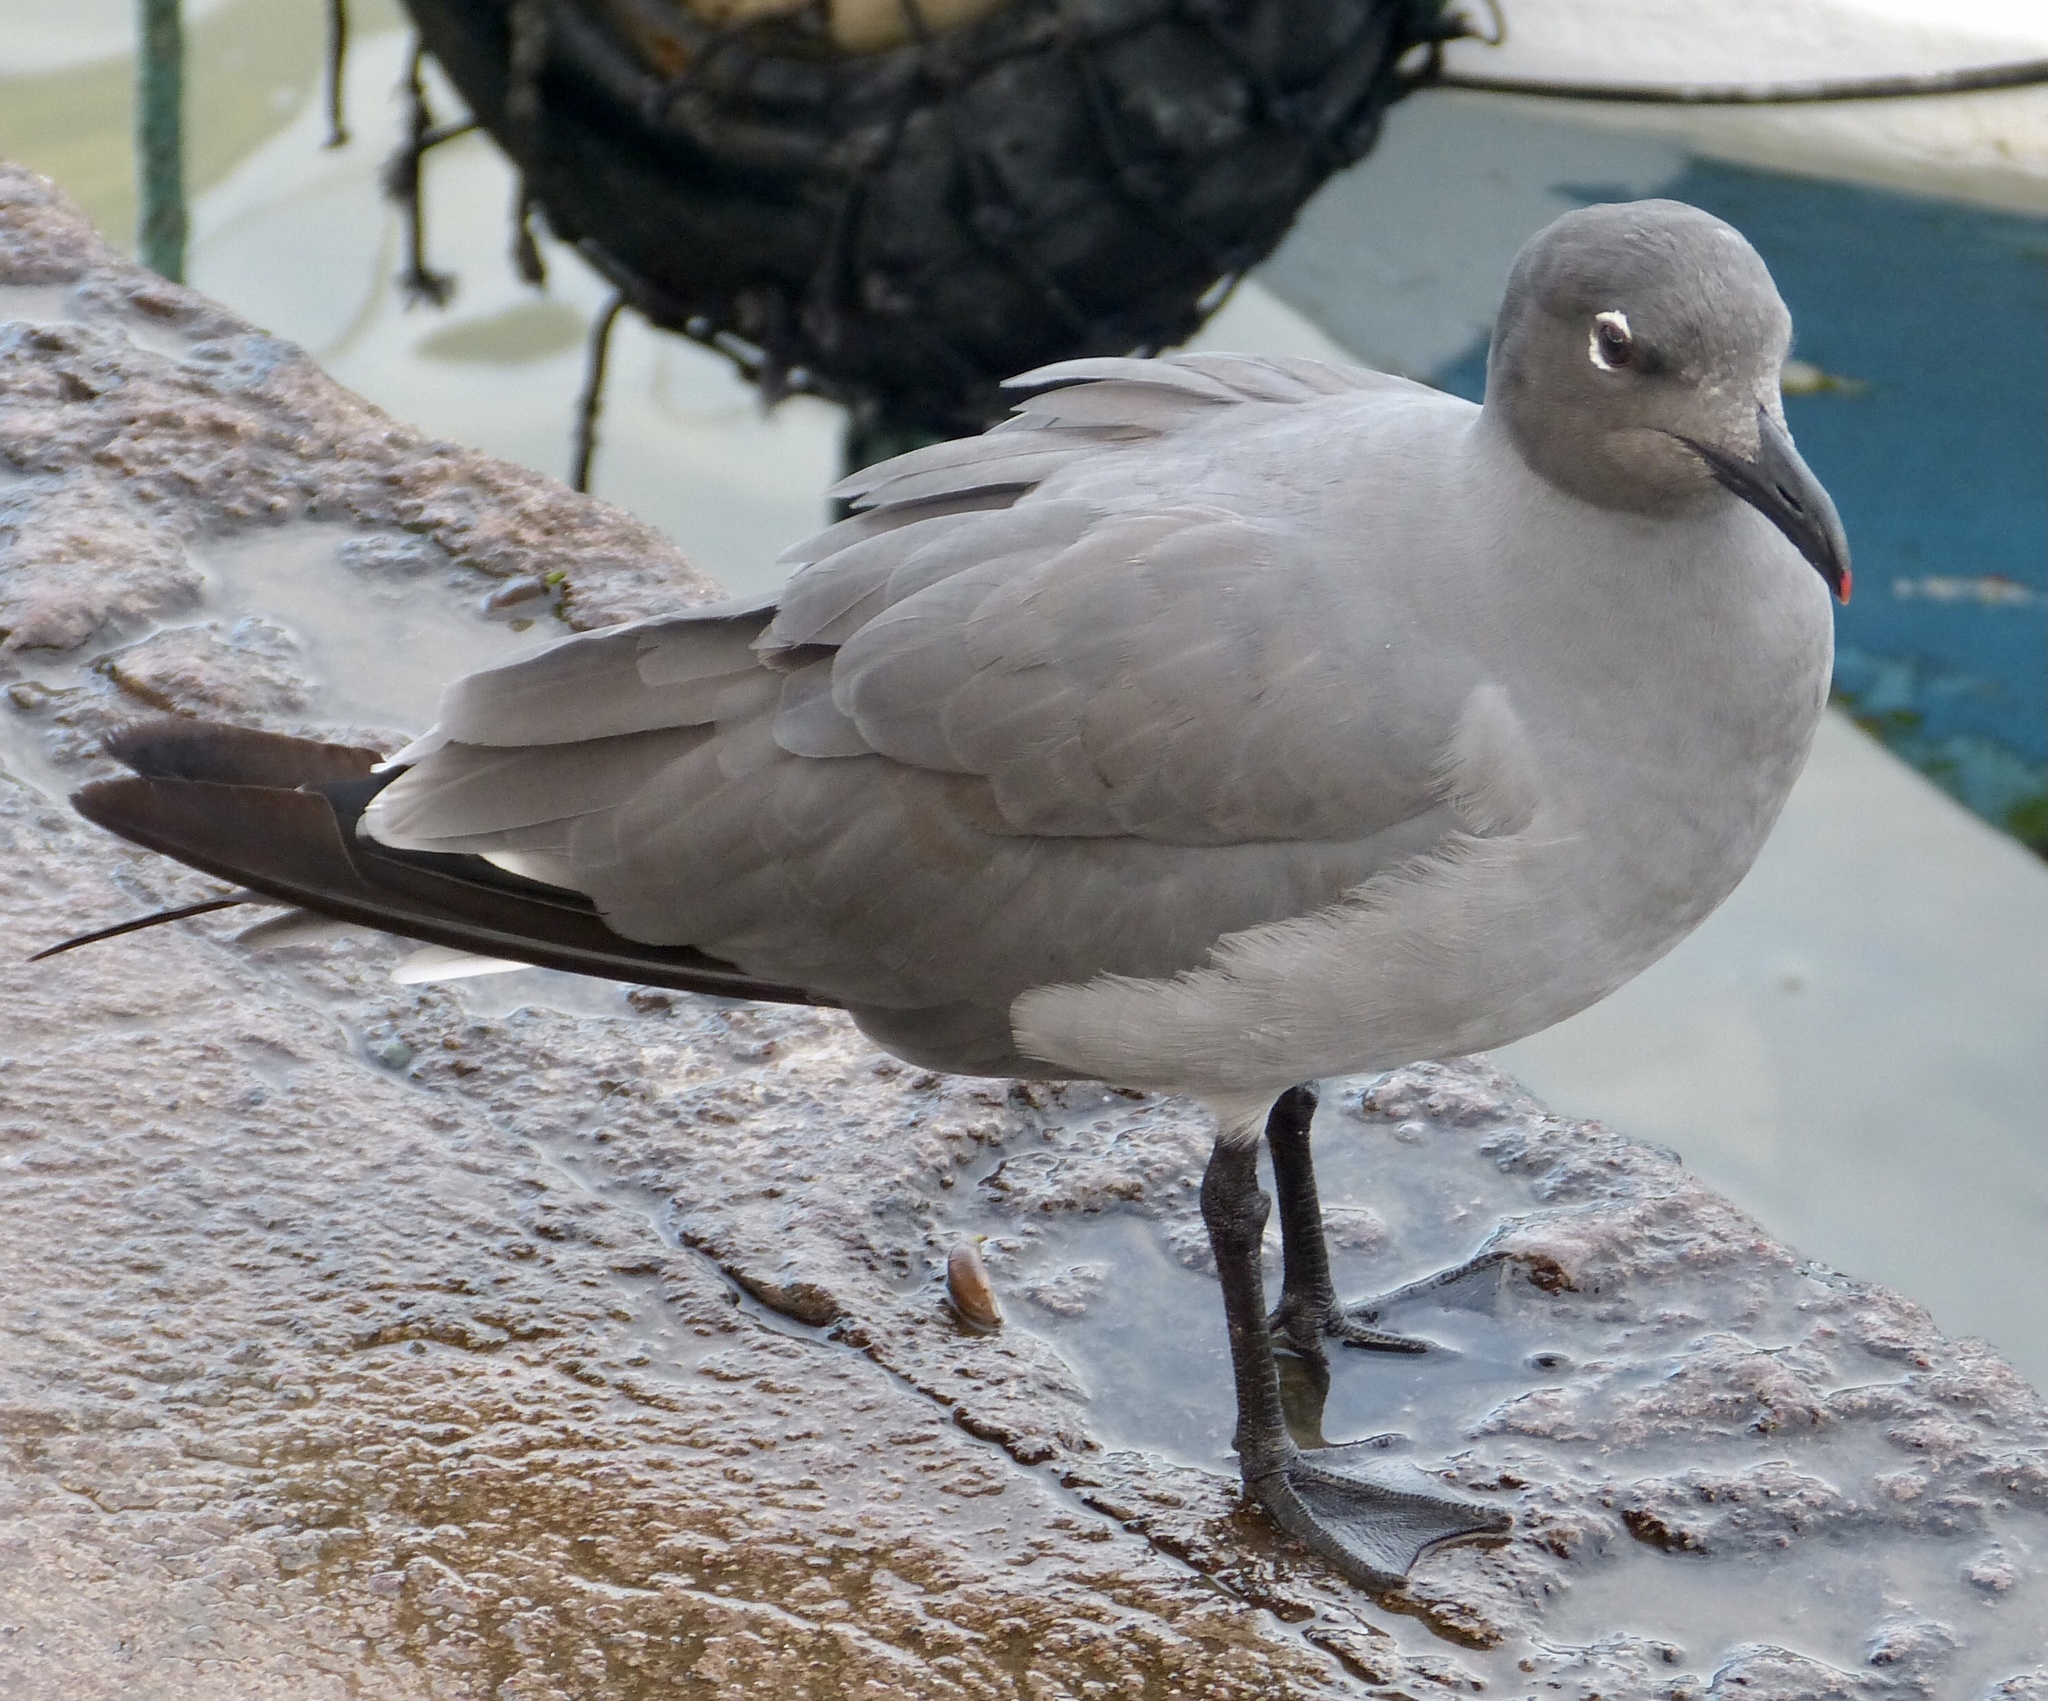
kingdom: Animalia
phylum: Chordata
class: Aves
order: Charadriiformes
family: Laridae
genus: Leucophaeus
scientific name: Leucophaeus fuliginosus
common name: Lava gull
